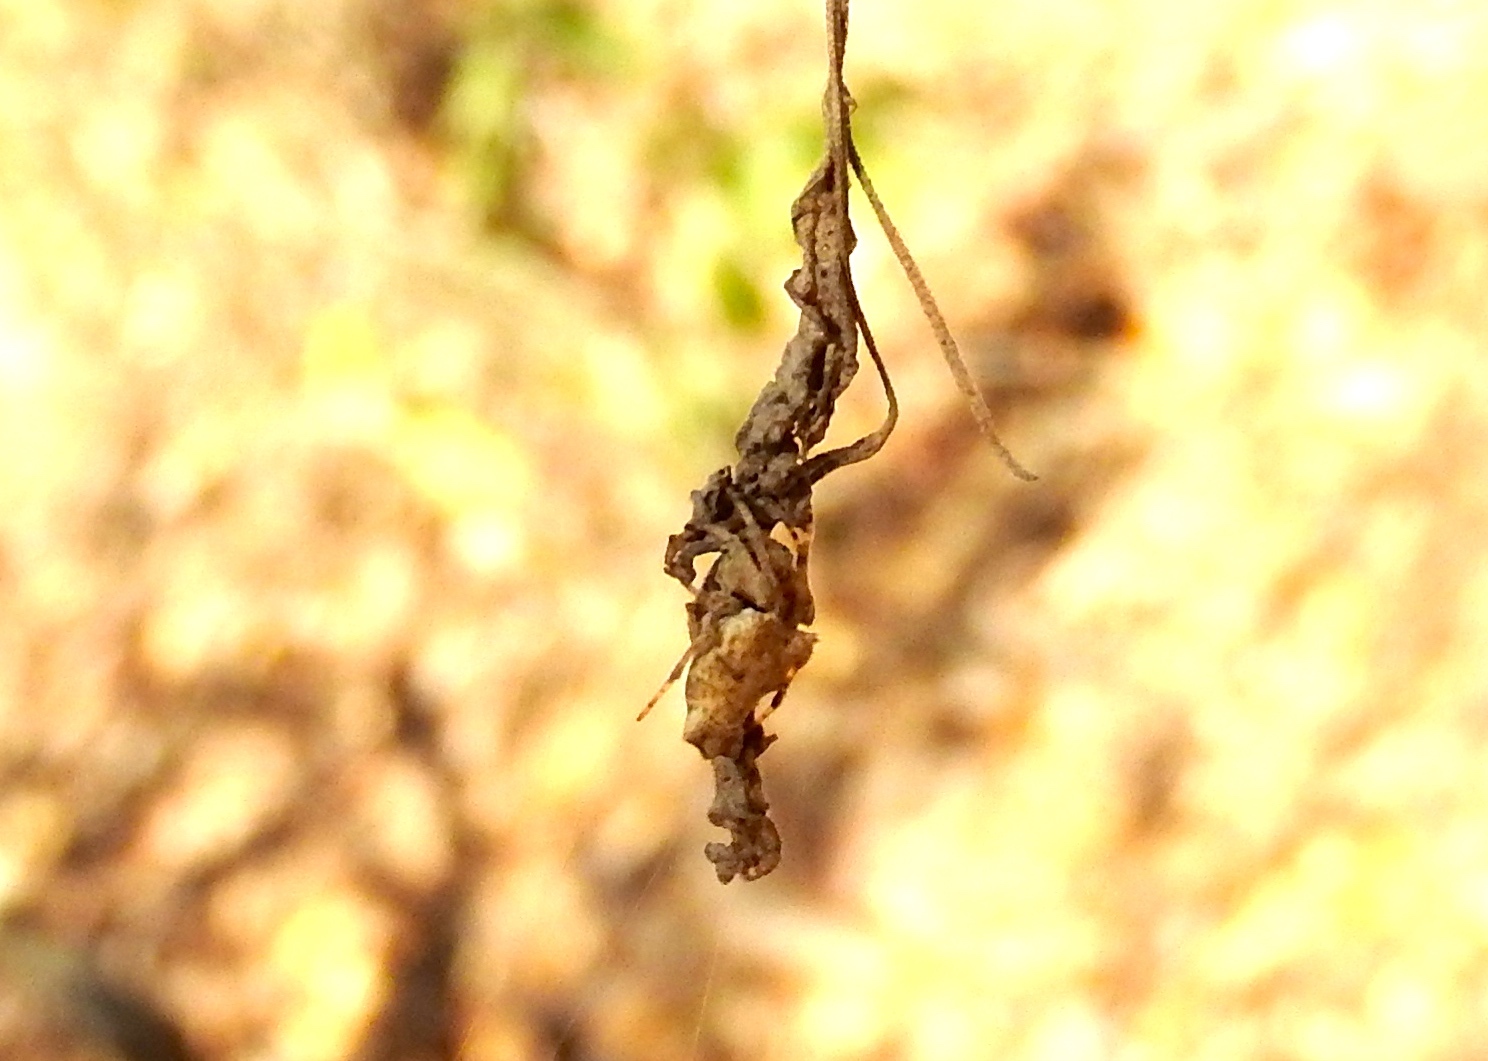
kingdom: Animalia
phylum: Arthropoda
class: Arachnida
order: Araneae
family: Araneidae
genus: Wagneriana
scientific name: Wagneriana
